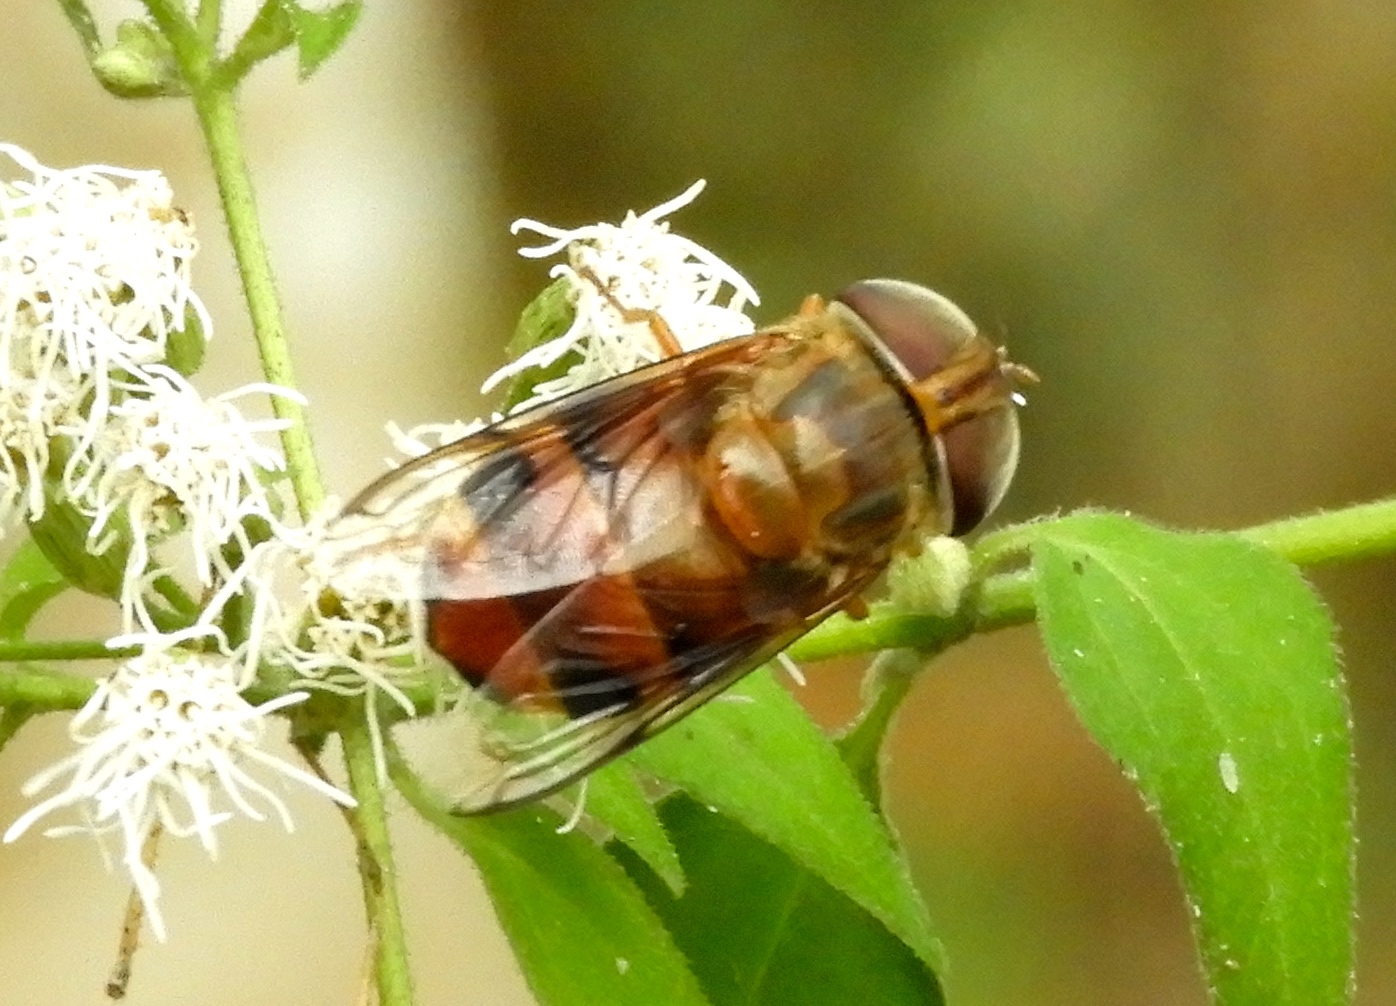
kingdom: Animalia
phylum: Arthropoda
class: Insecta
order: Diptera
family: Syrphidae
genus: Copestylum
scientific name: Copestylum macrocephalum
